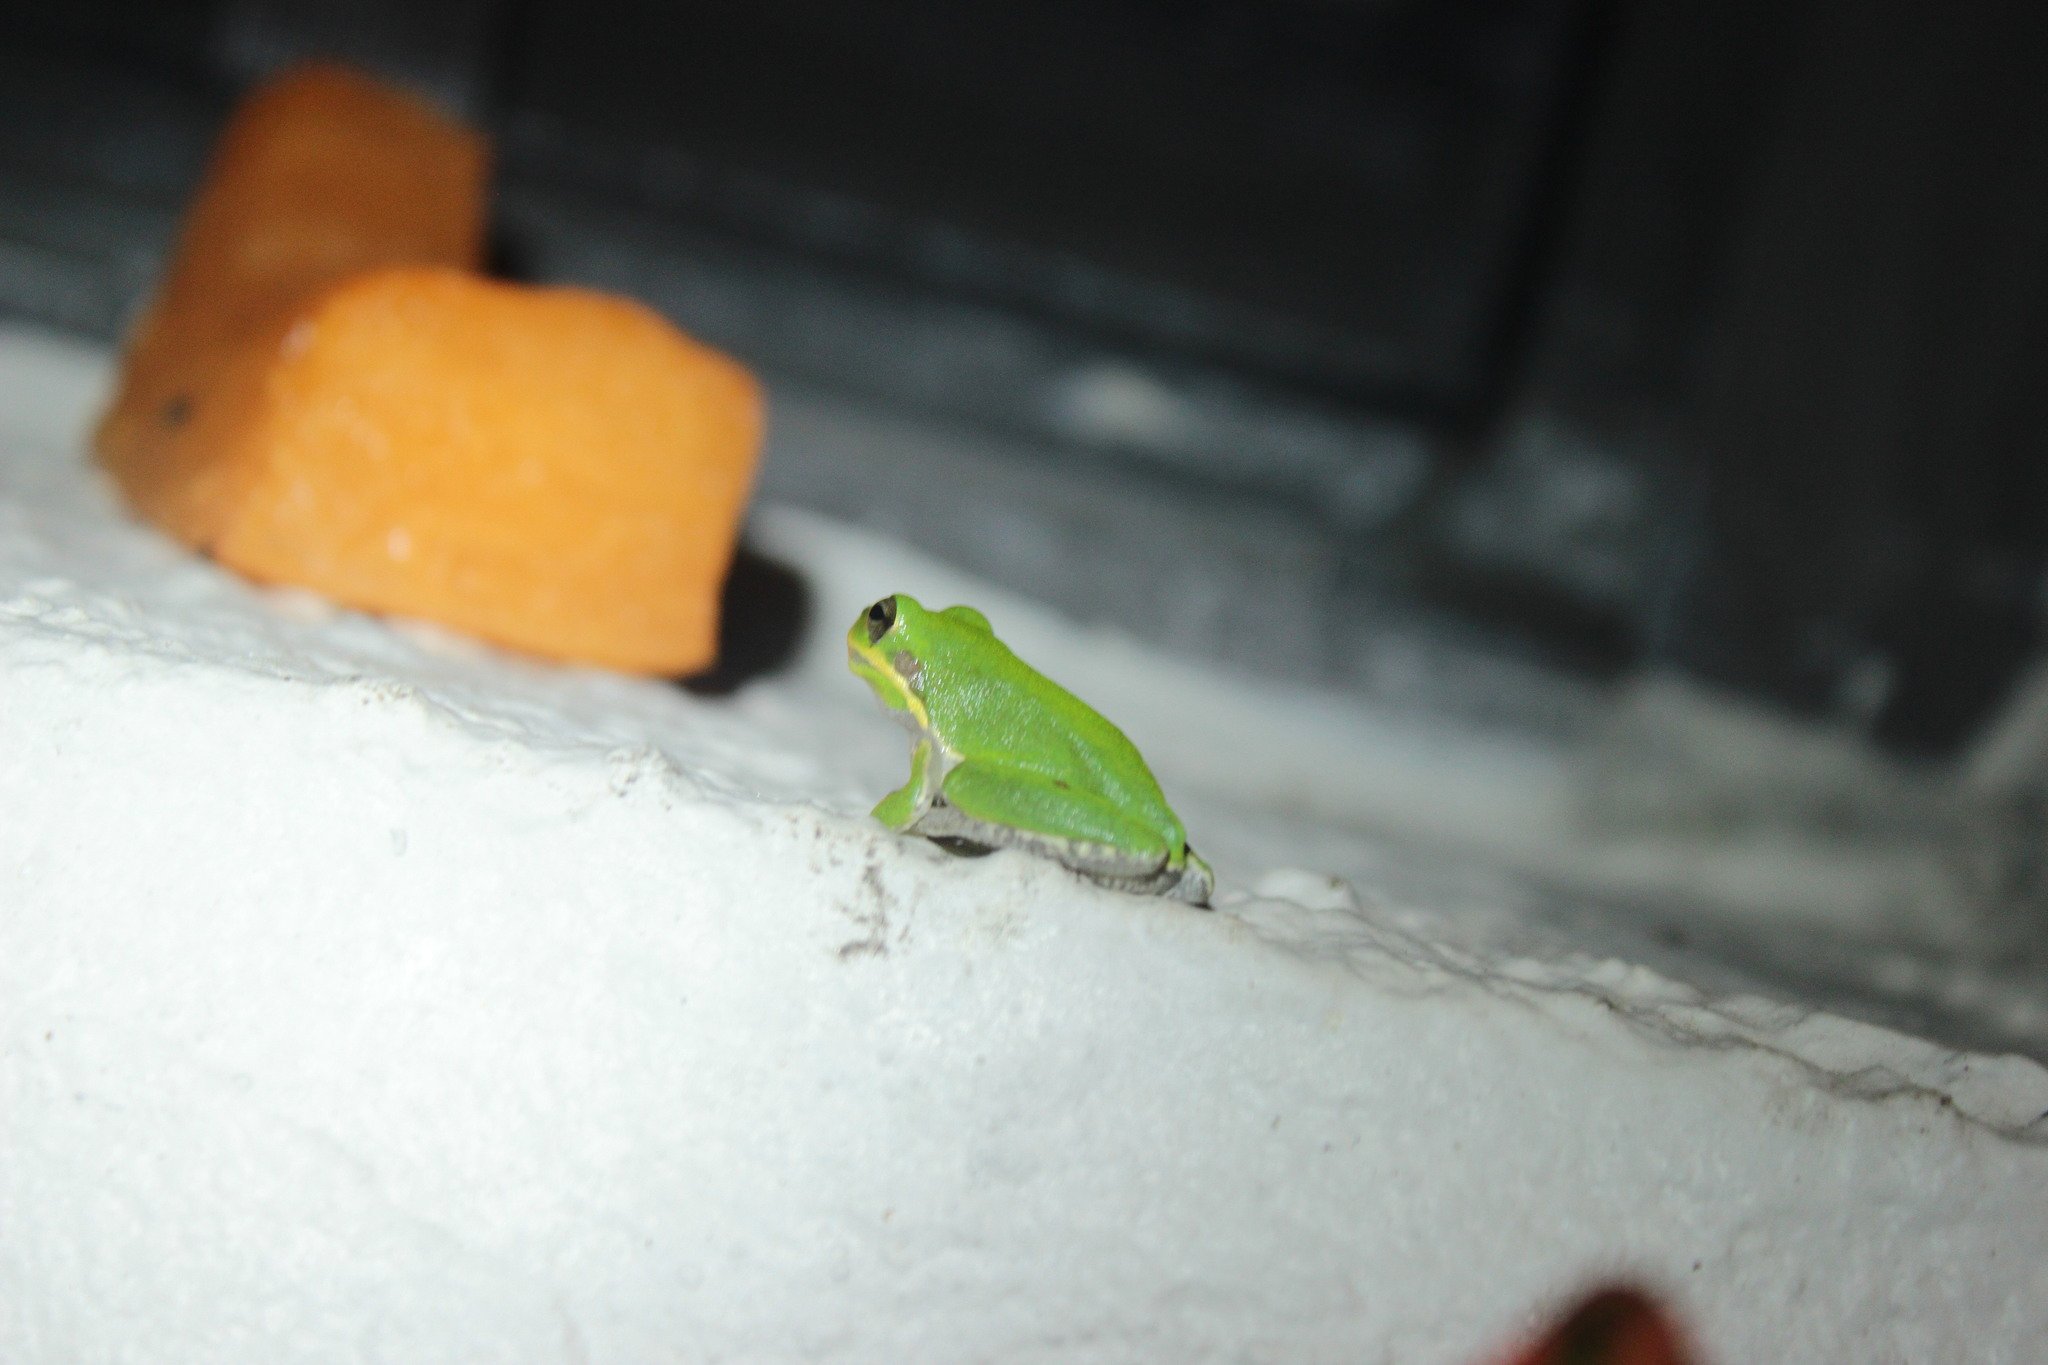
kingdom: Animalia
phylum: Chordata
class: Amphibia
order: Anura
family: Hylidae
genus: Dryophytes
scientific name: Dryophytes squirellus
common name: Squirrel treefrog
